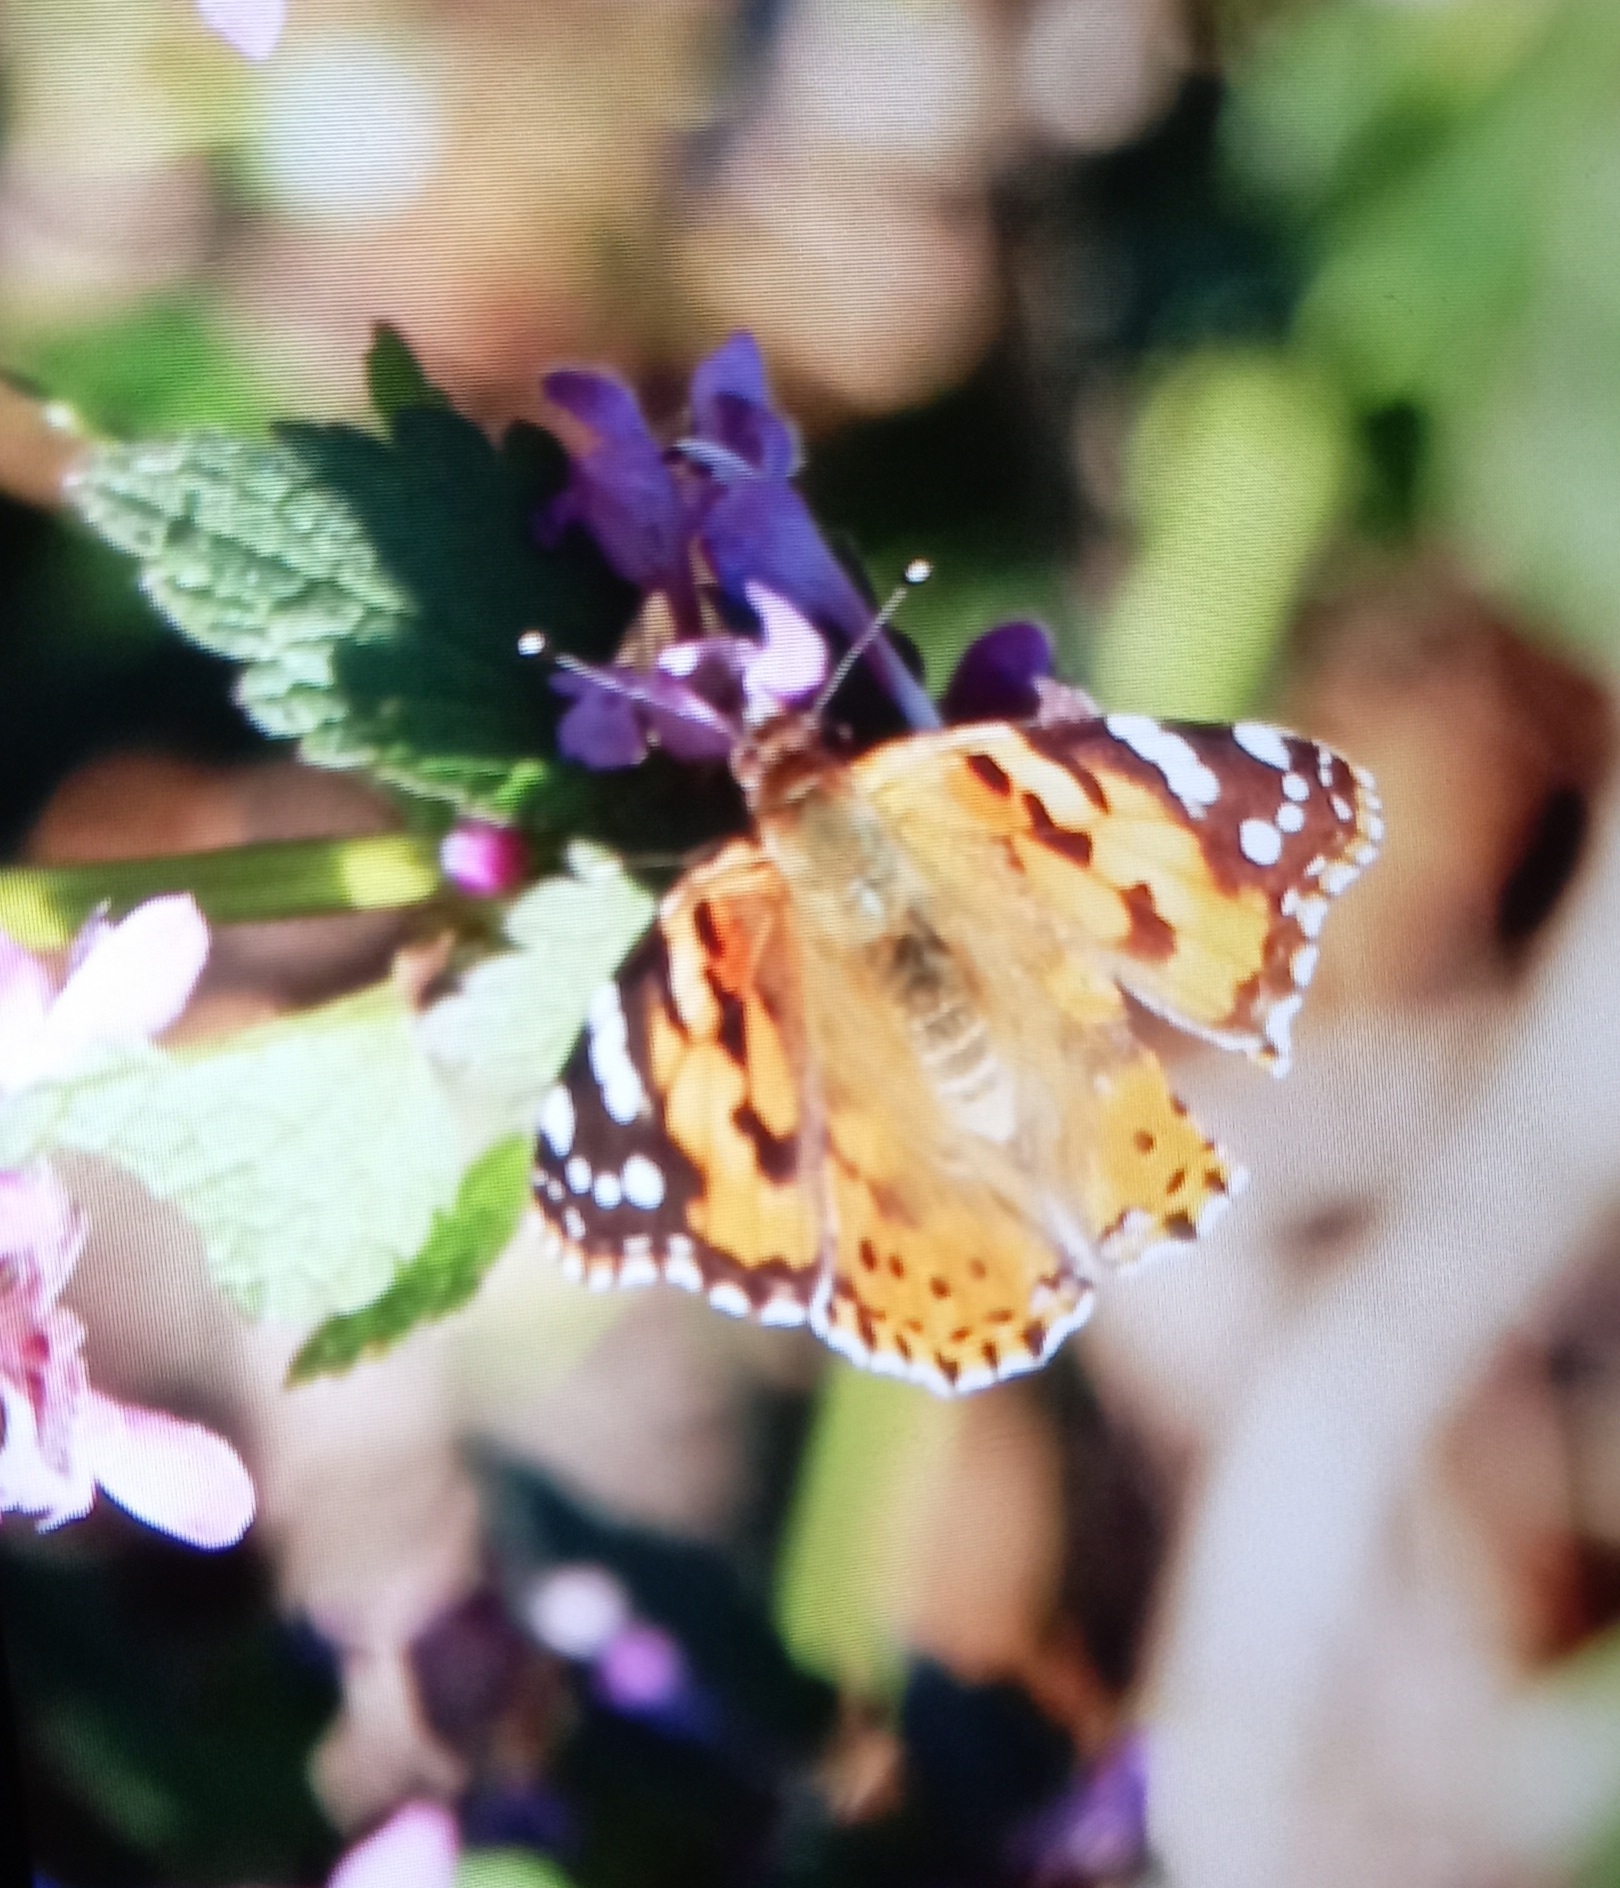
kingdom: Animalia
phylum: Arthropoda
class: Insecta
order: Lepidoptera
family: Nymphalidae
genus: Vanessa
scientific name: Vanessa cardui
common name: Painted lady
